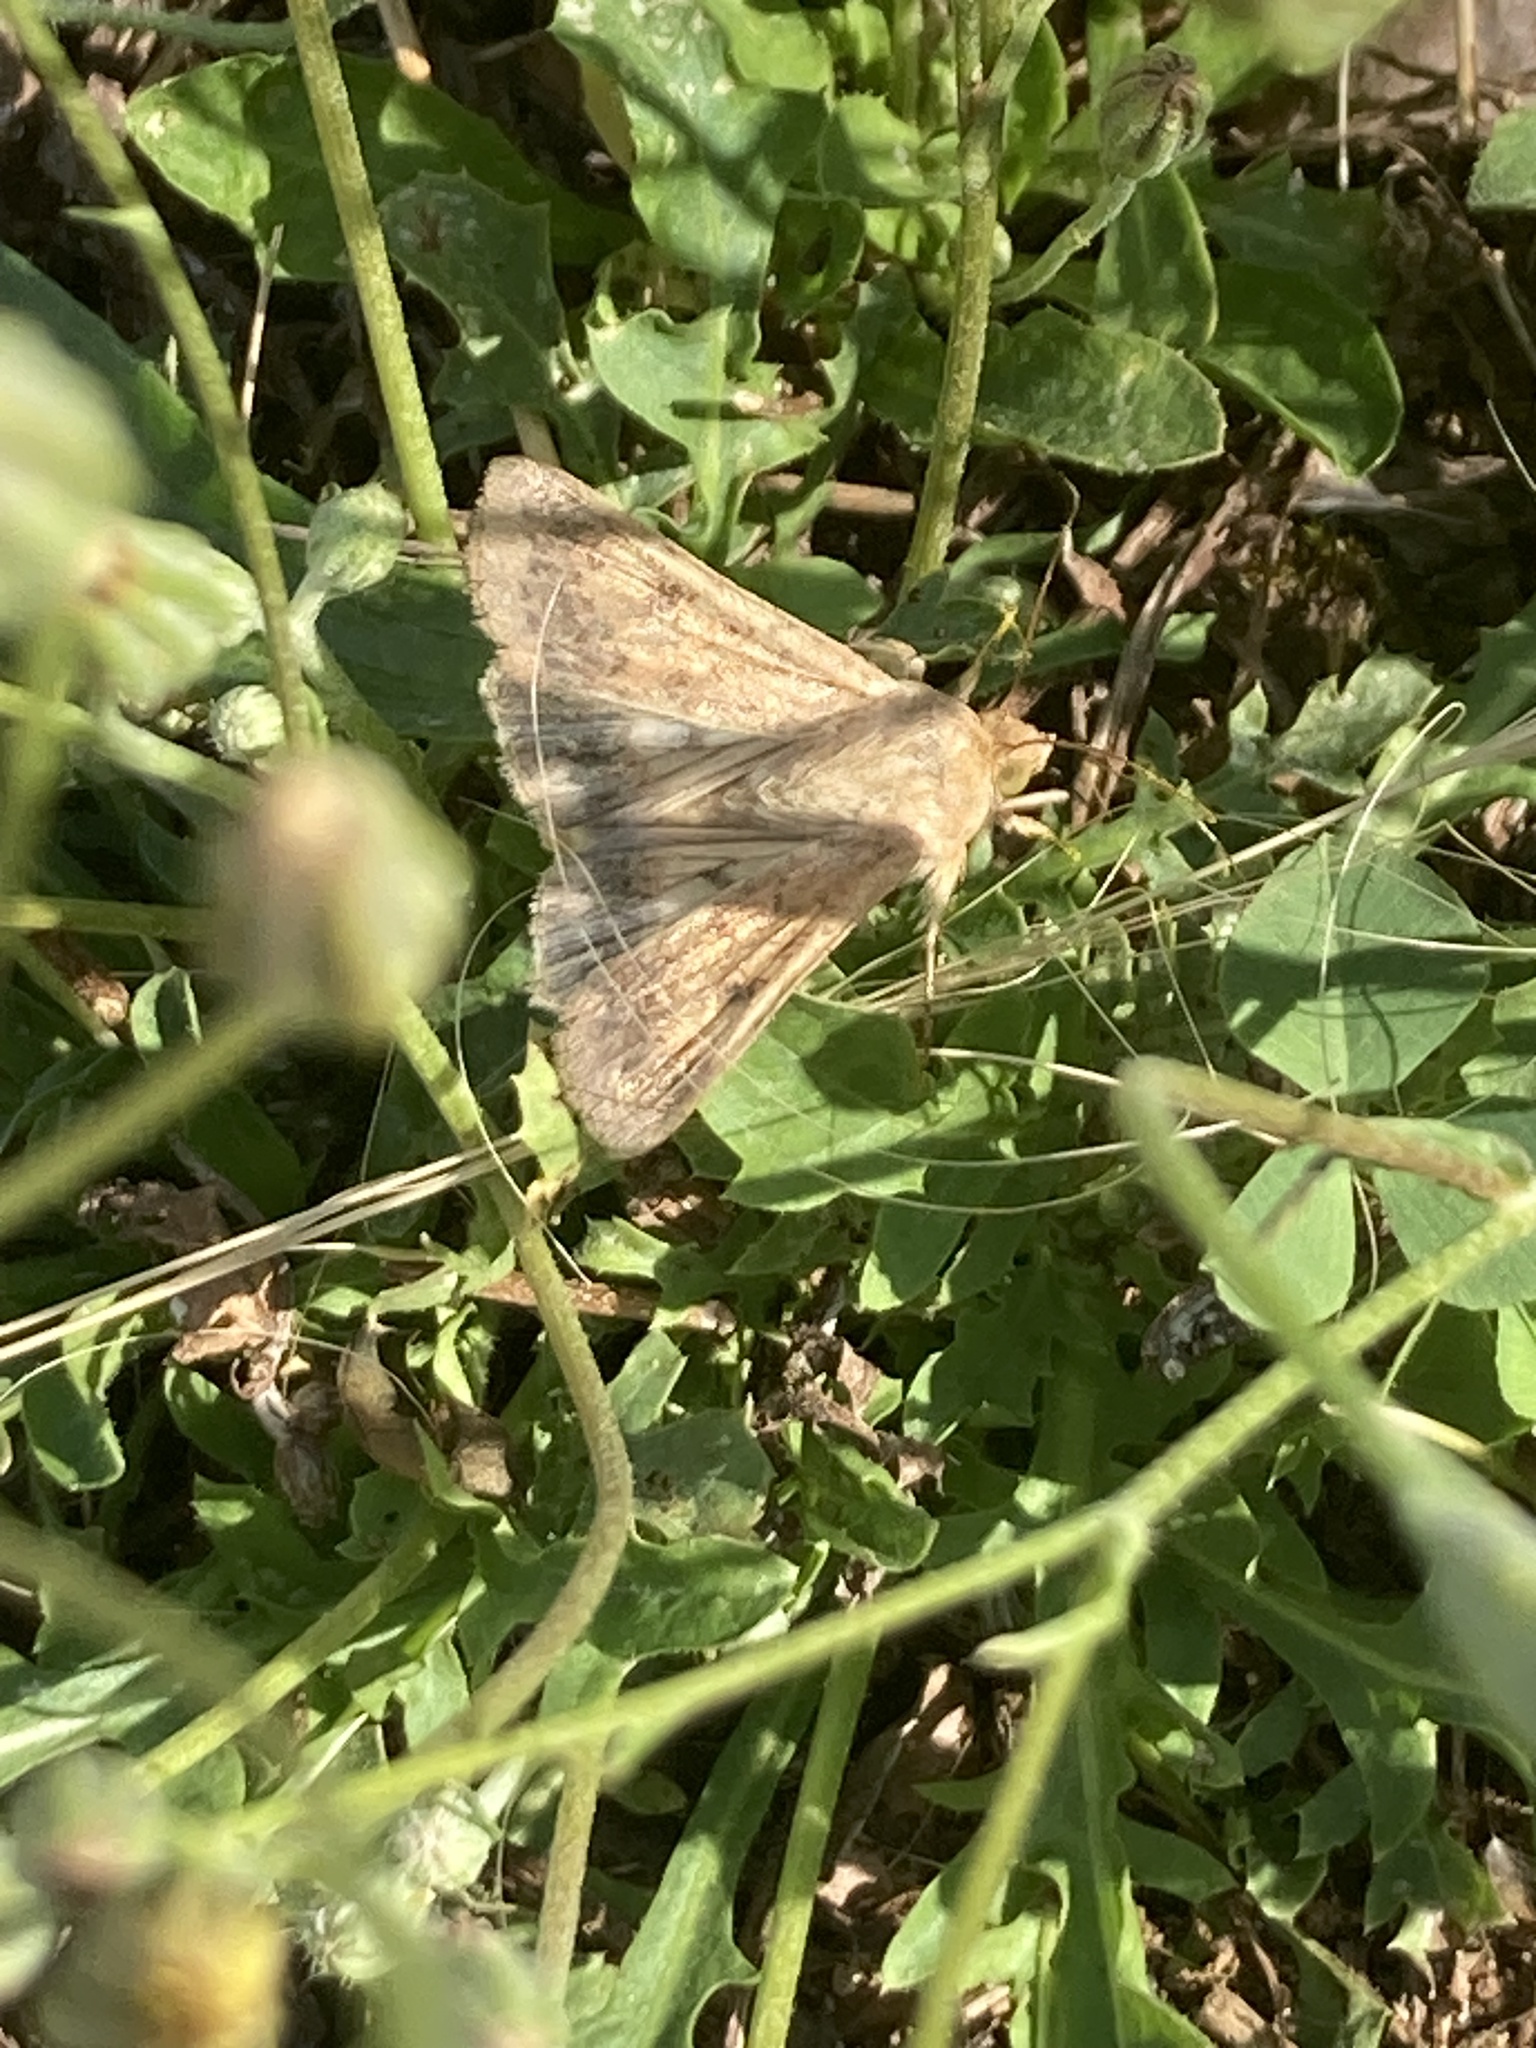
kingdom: Animalia
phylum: Arthropoda
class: Insecta
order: Lepidoptera
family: Noctuidae
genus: Helicoverpa
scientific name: Helicoverpa armigera
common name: Cotton bollworm
